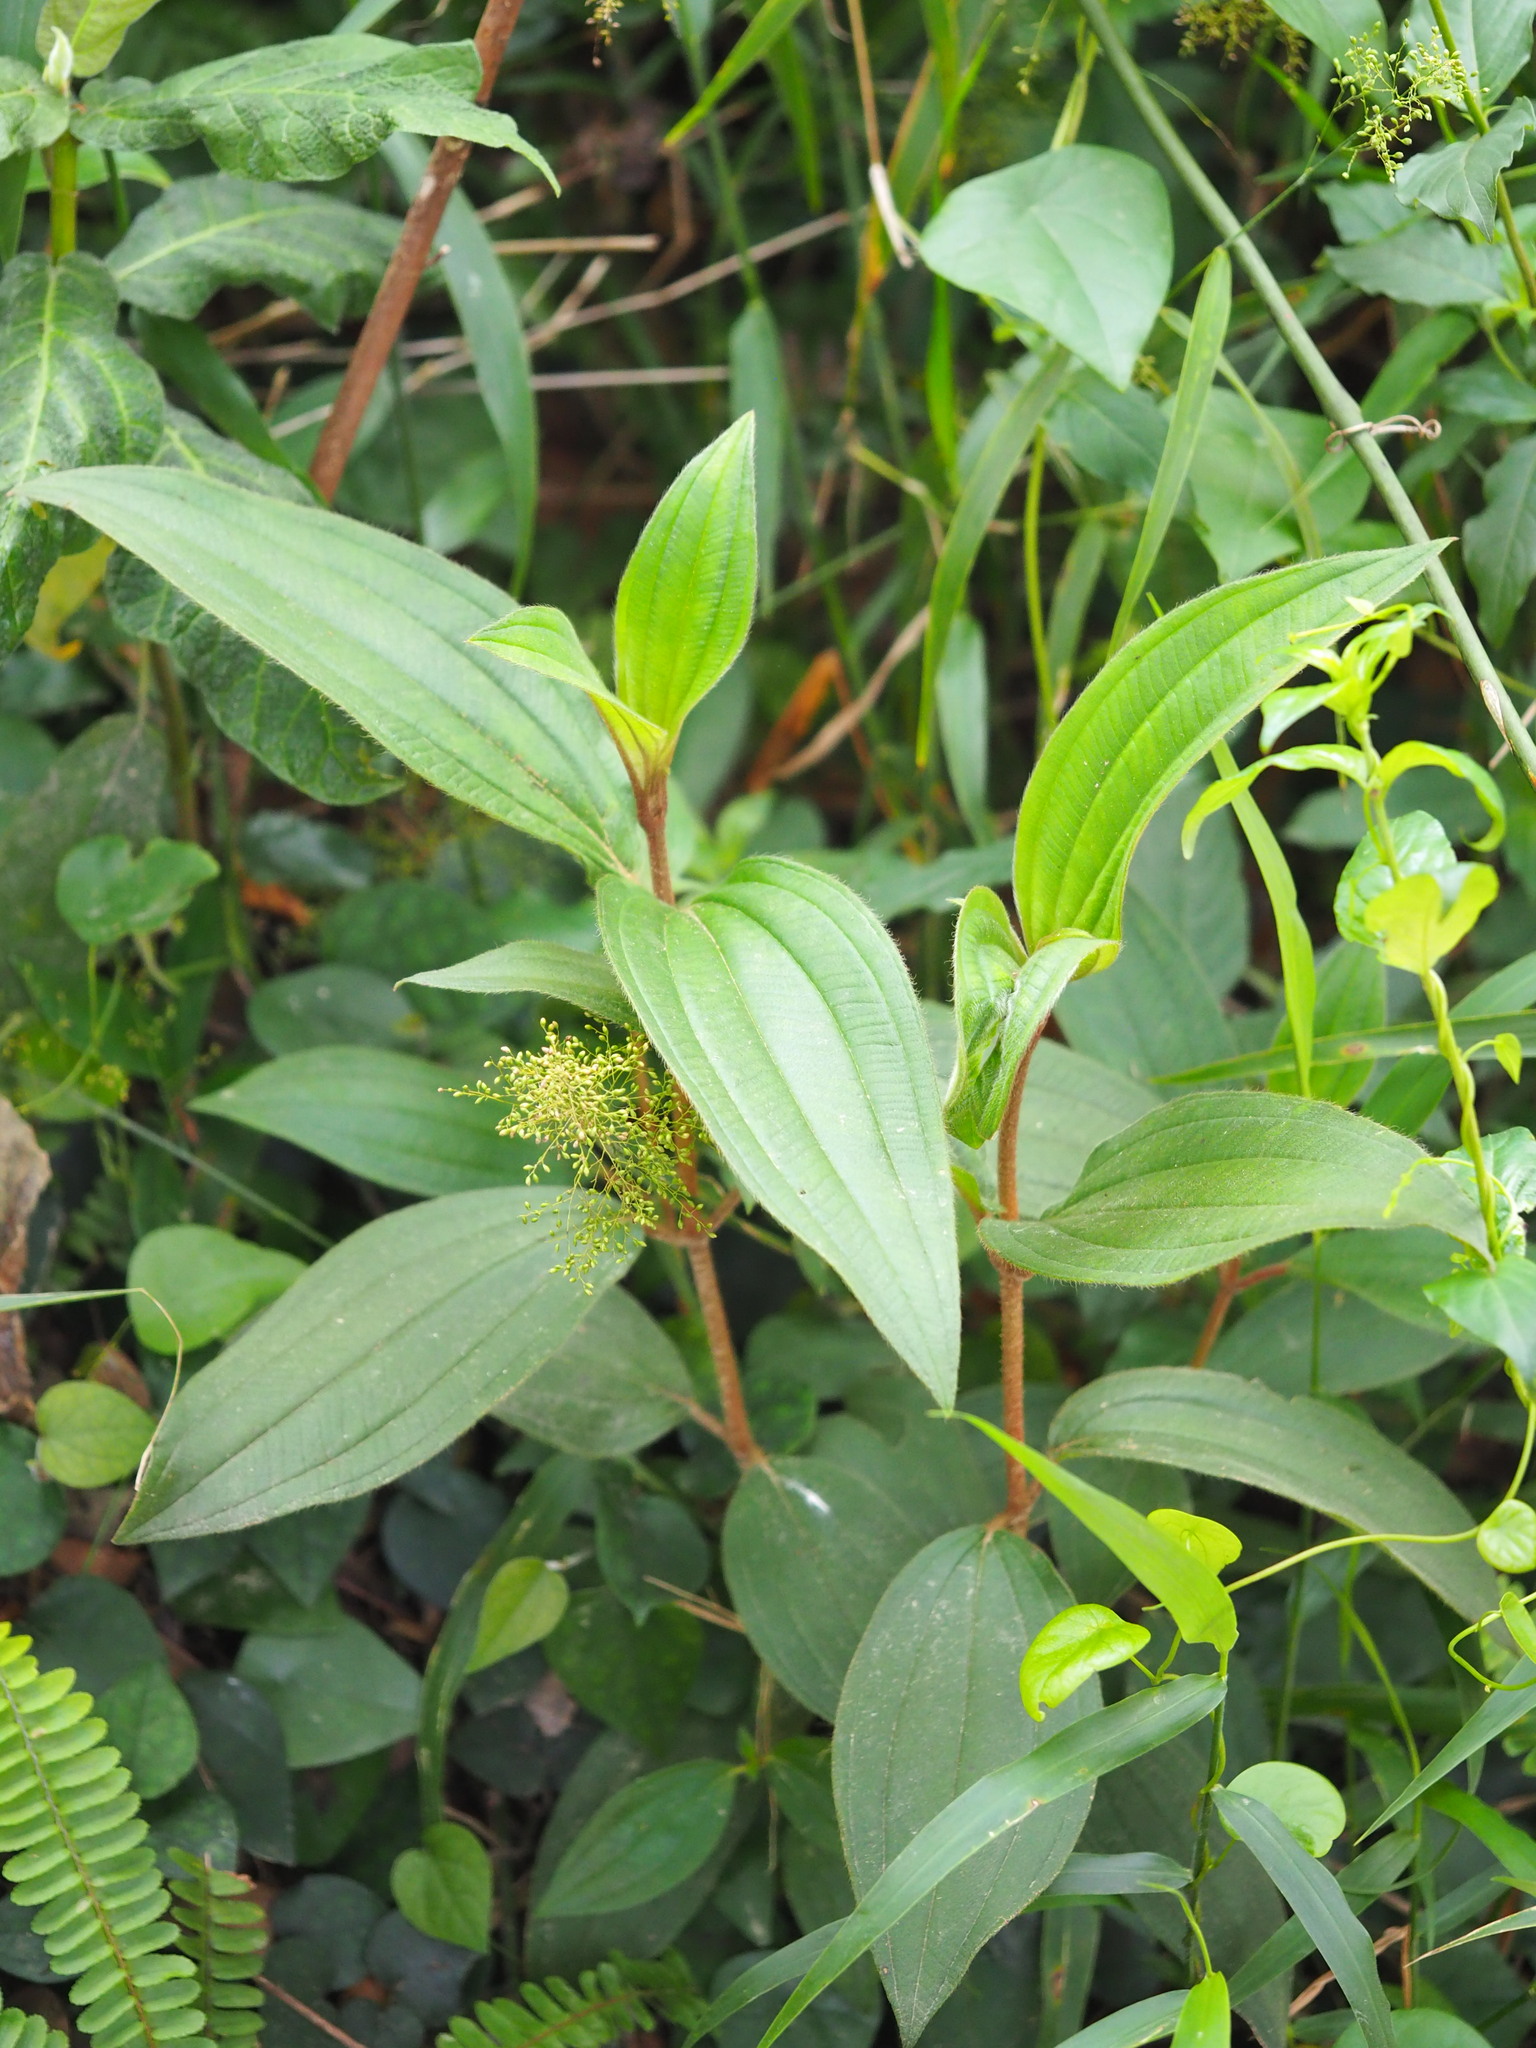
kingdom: Plantae
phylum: Tracheophyta
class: Magnoliopsida
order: Myrtales
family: Melastomataceae
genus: Melastoma
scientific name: Melastoma malabathricum
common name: Indian-rhododendron
